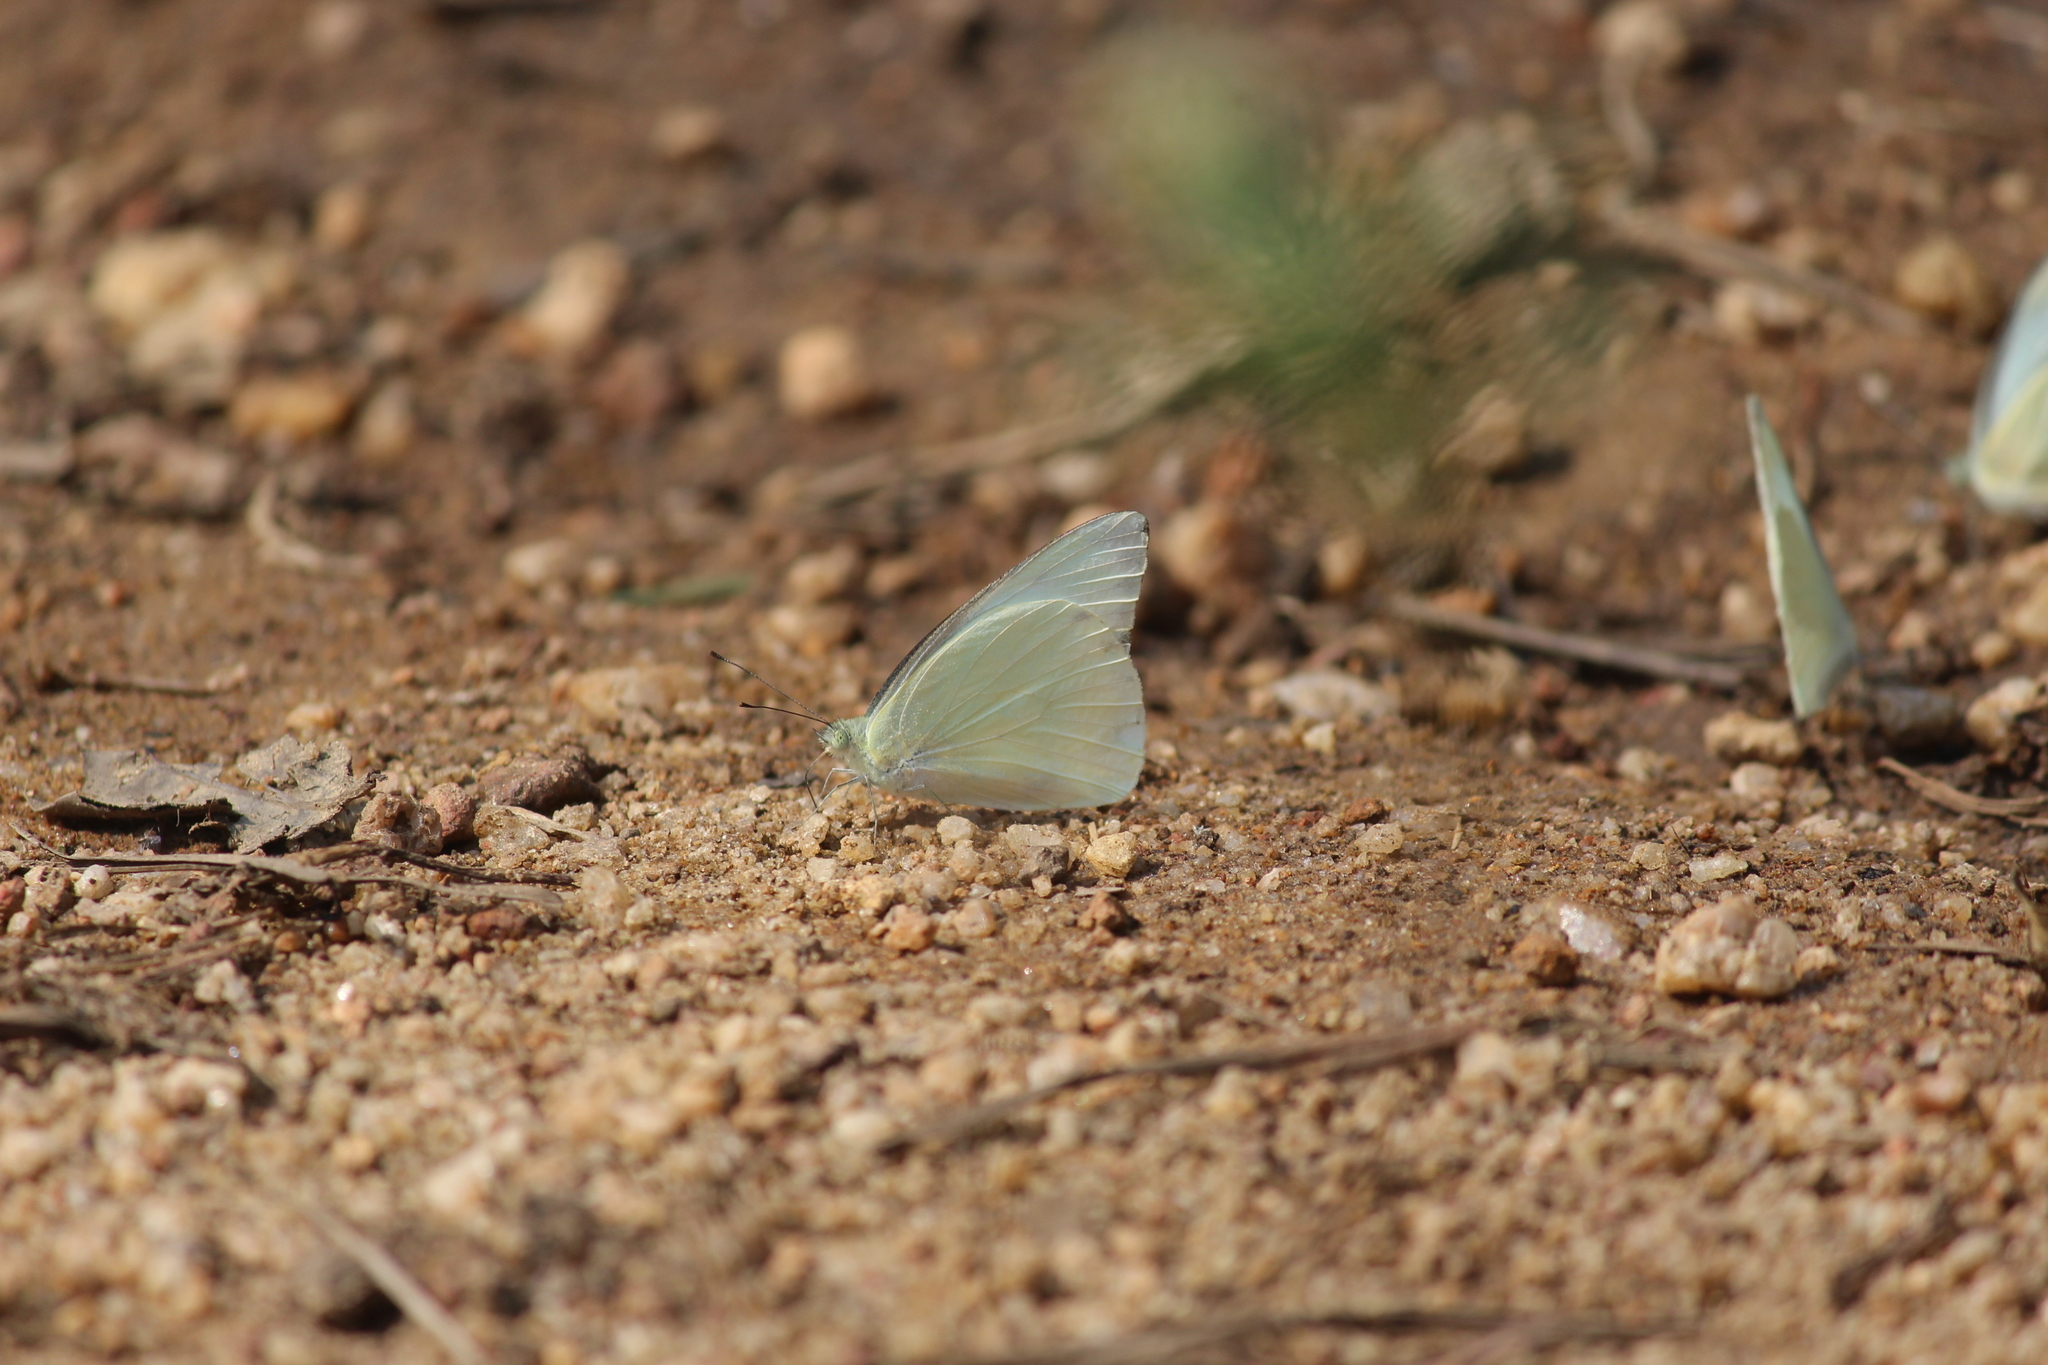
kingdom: Animalia
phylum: Arthropoda
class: Insecta
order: Lepidoptera
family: Pieridae
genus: Appias
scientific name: Appias albina
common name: Common albatross
